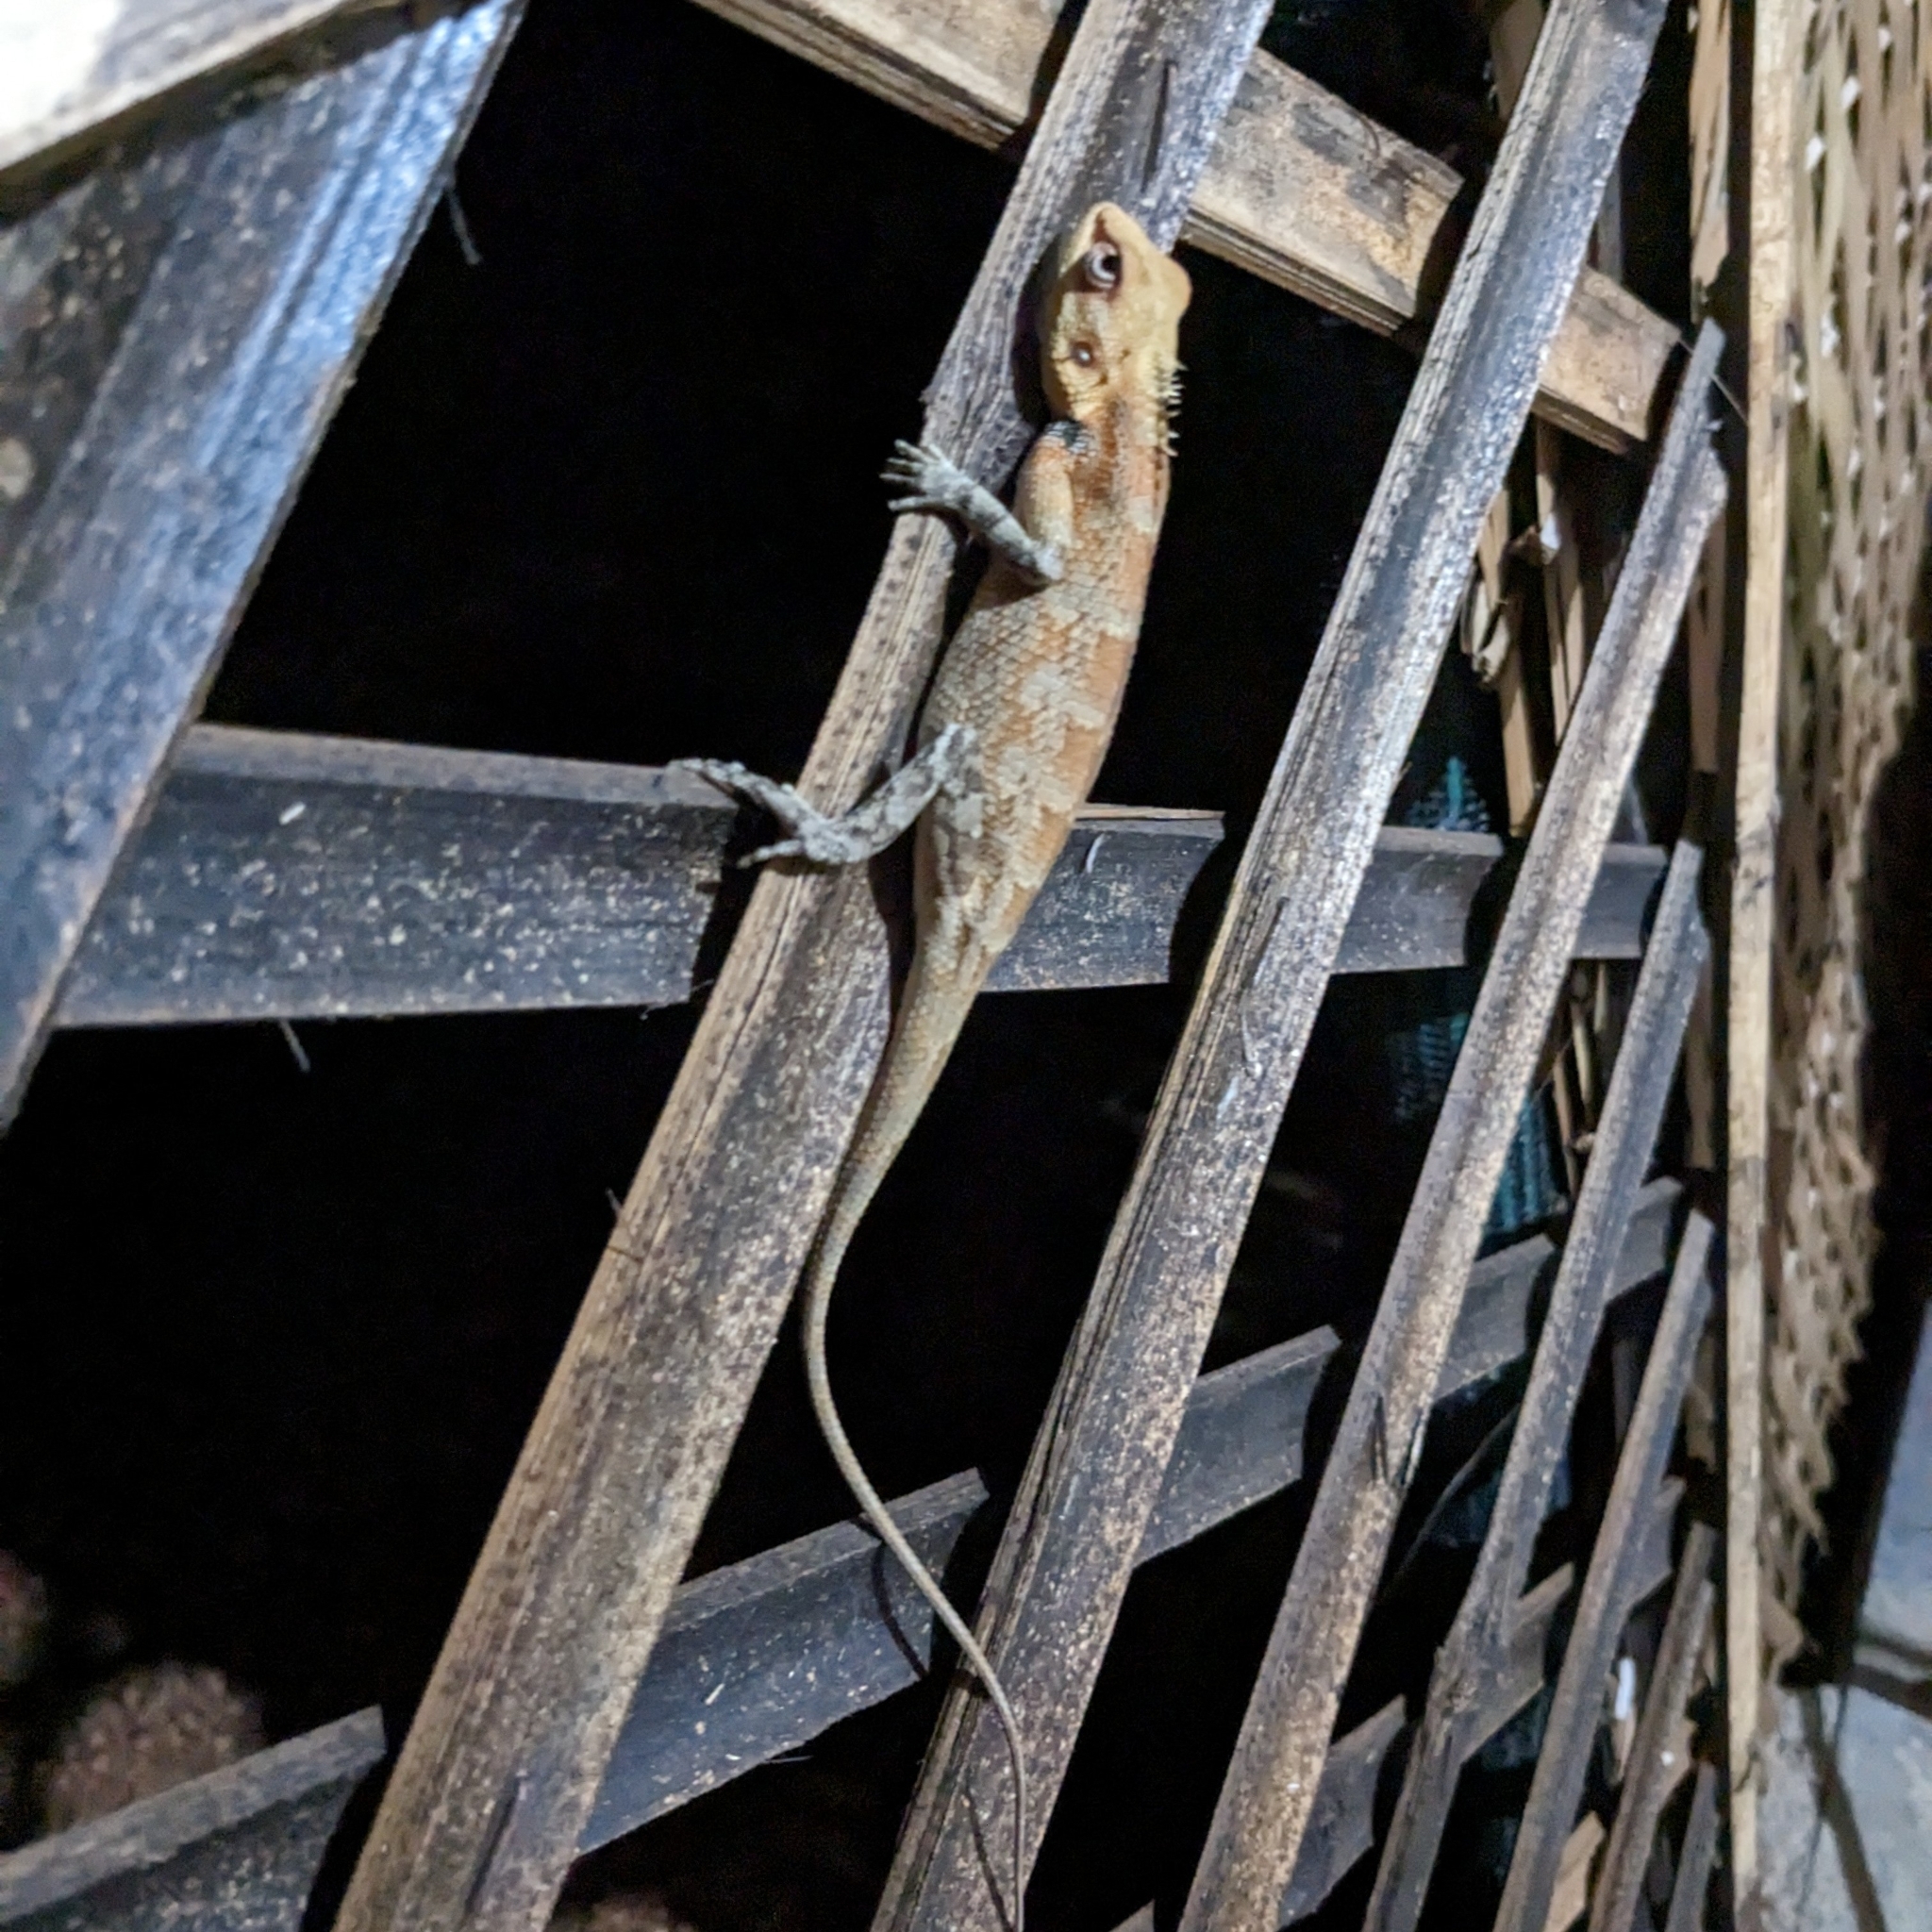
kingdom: Animalia
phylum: Chordata
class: Squamata
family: Agamidae
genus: Calotes
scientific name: Calotes versicolor
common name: Oriental garden lizard
